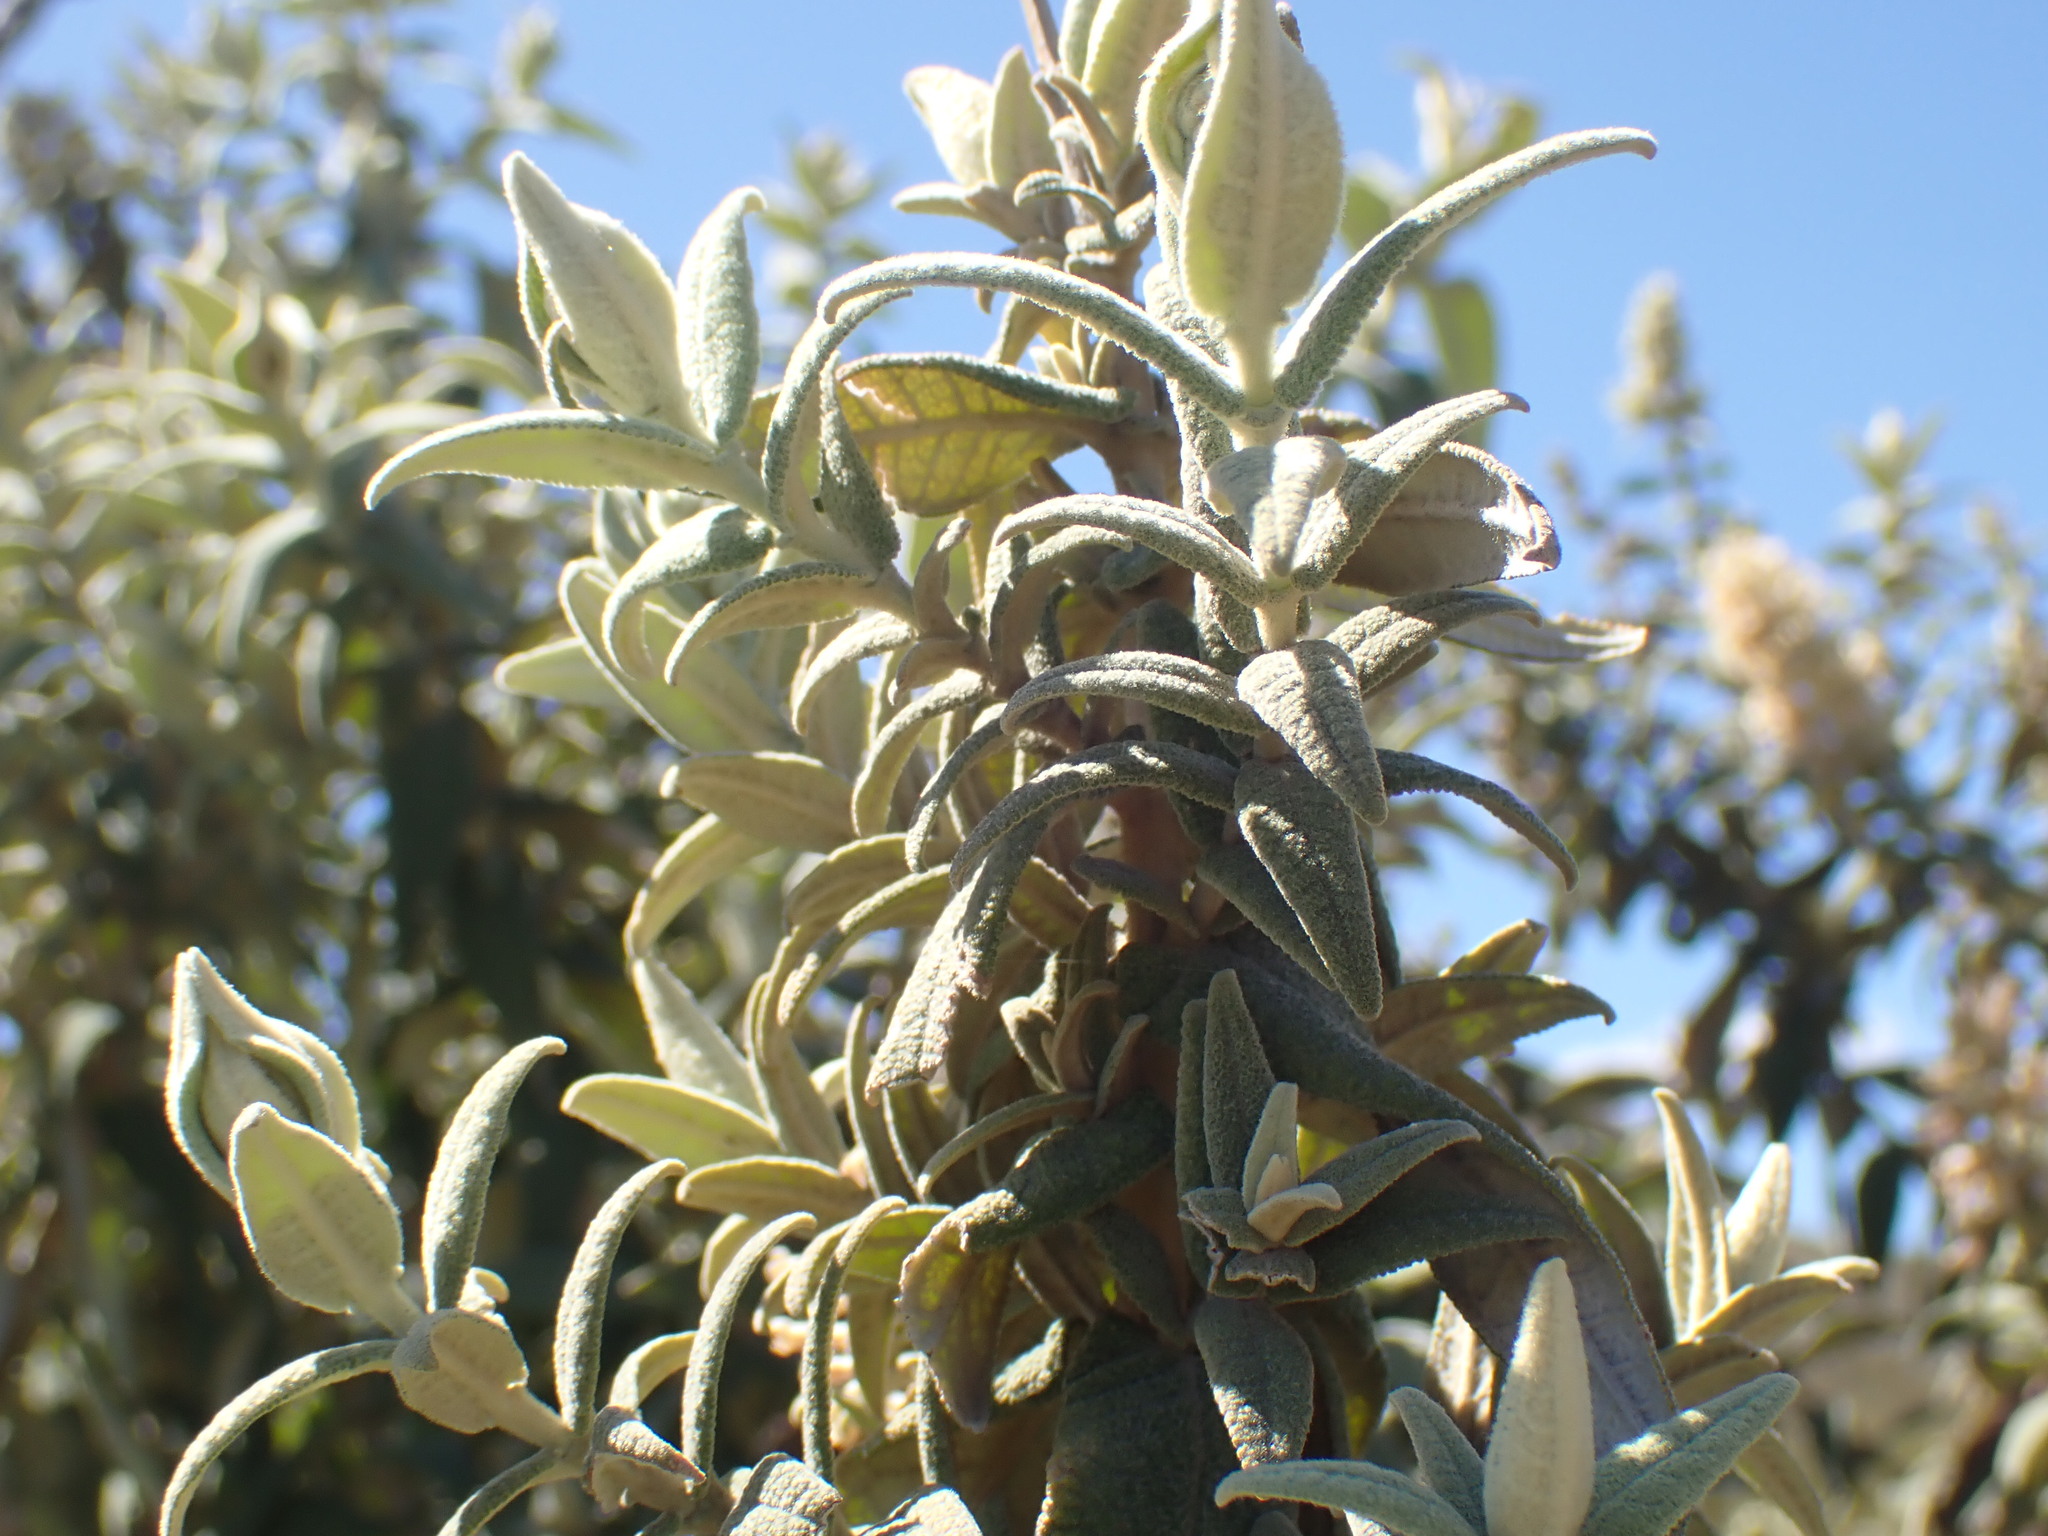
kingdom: Plantae
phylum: Tracheophyta
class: Magnoliopsida
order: Lamiales
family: Scrophulariaceae
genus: Buddleja
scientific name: Buddleja salviifolia
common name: Sagewood
